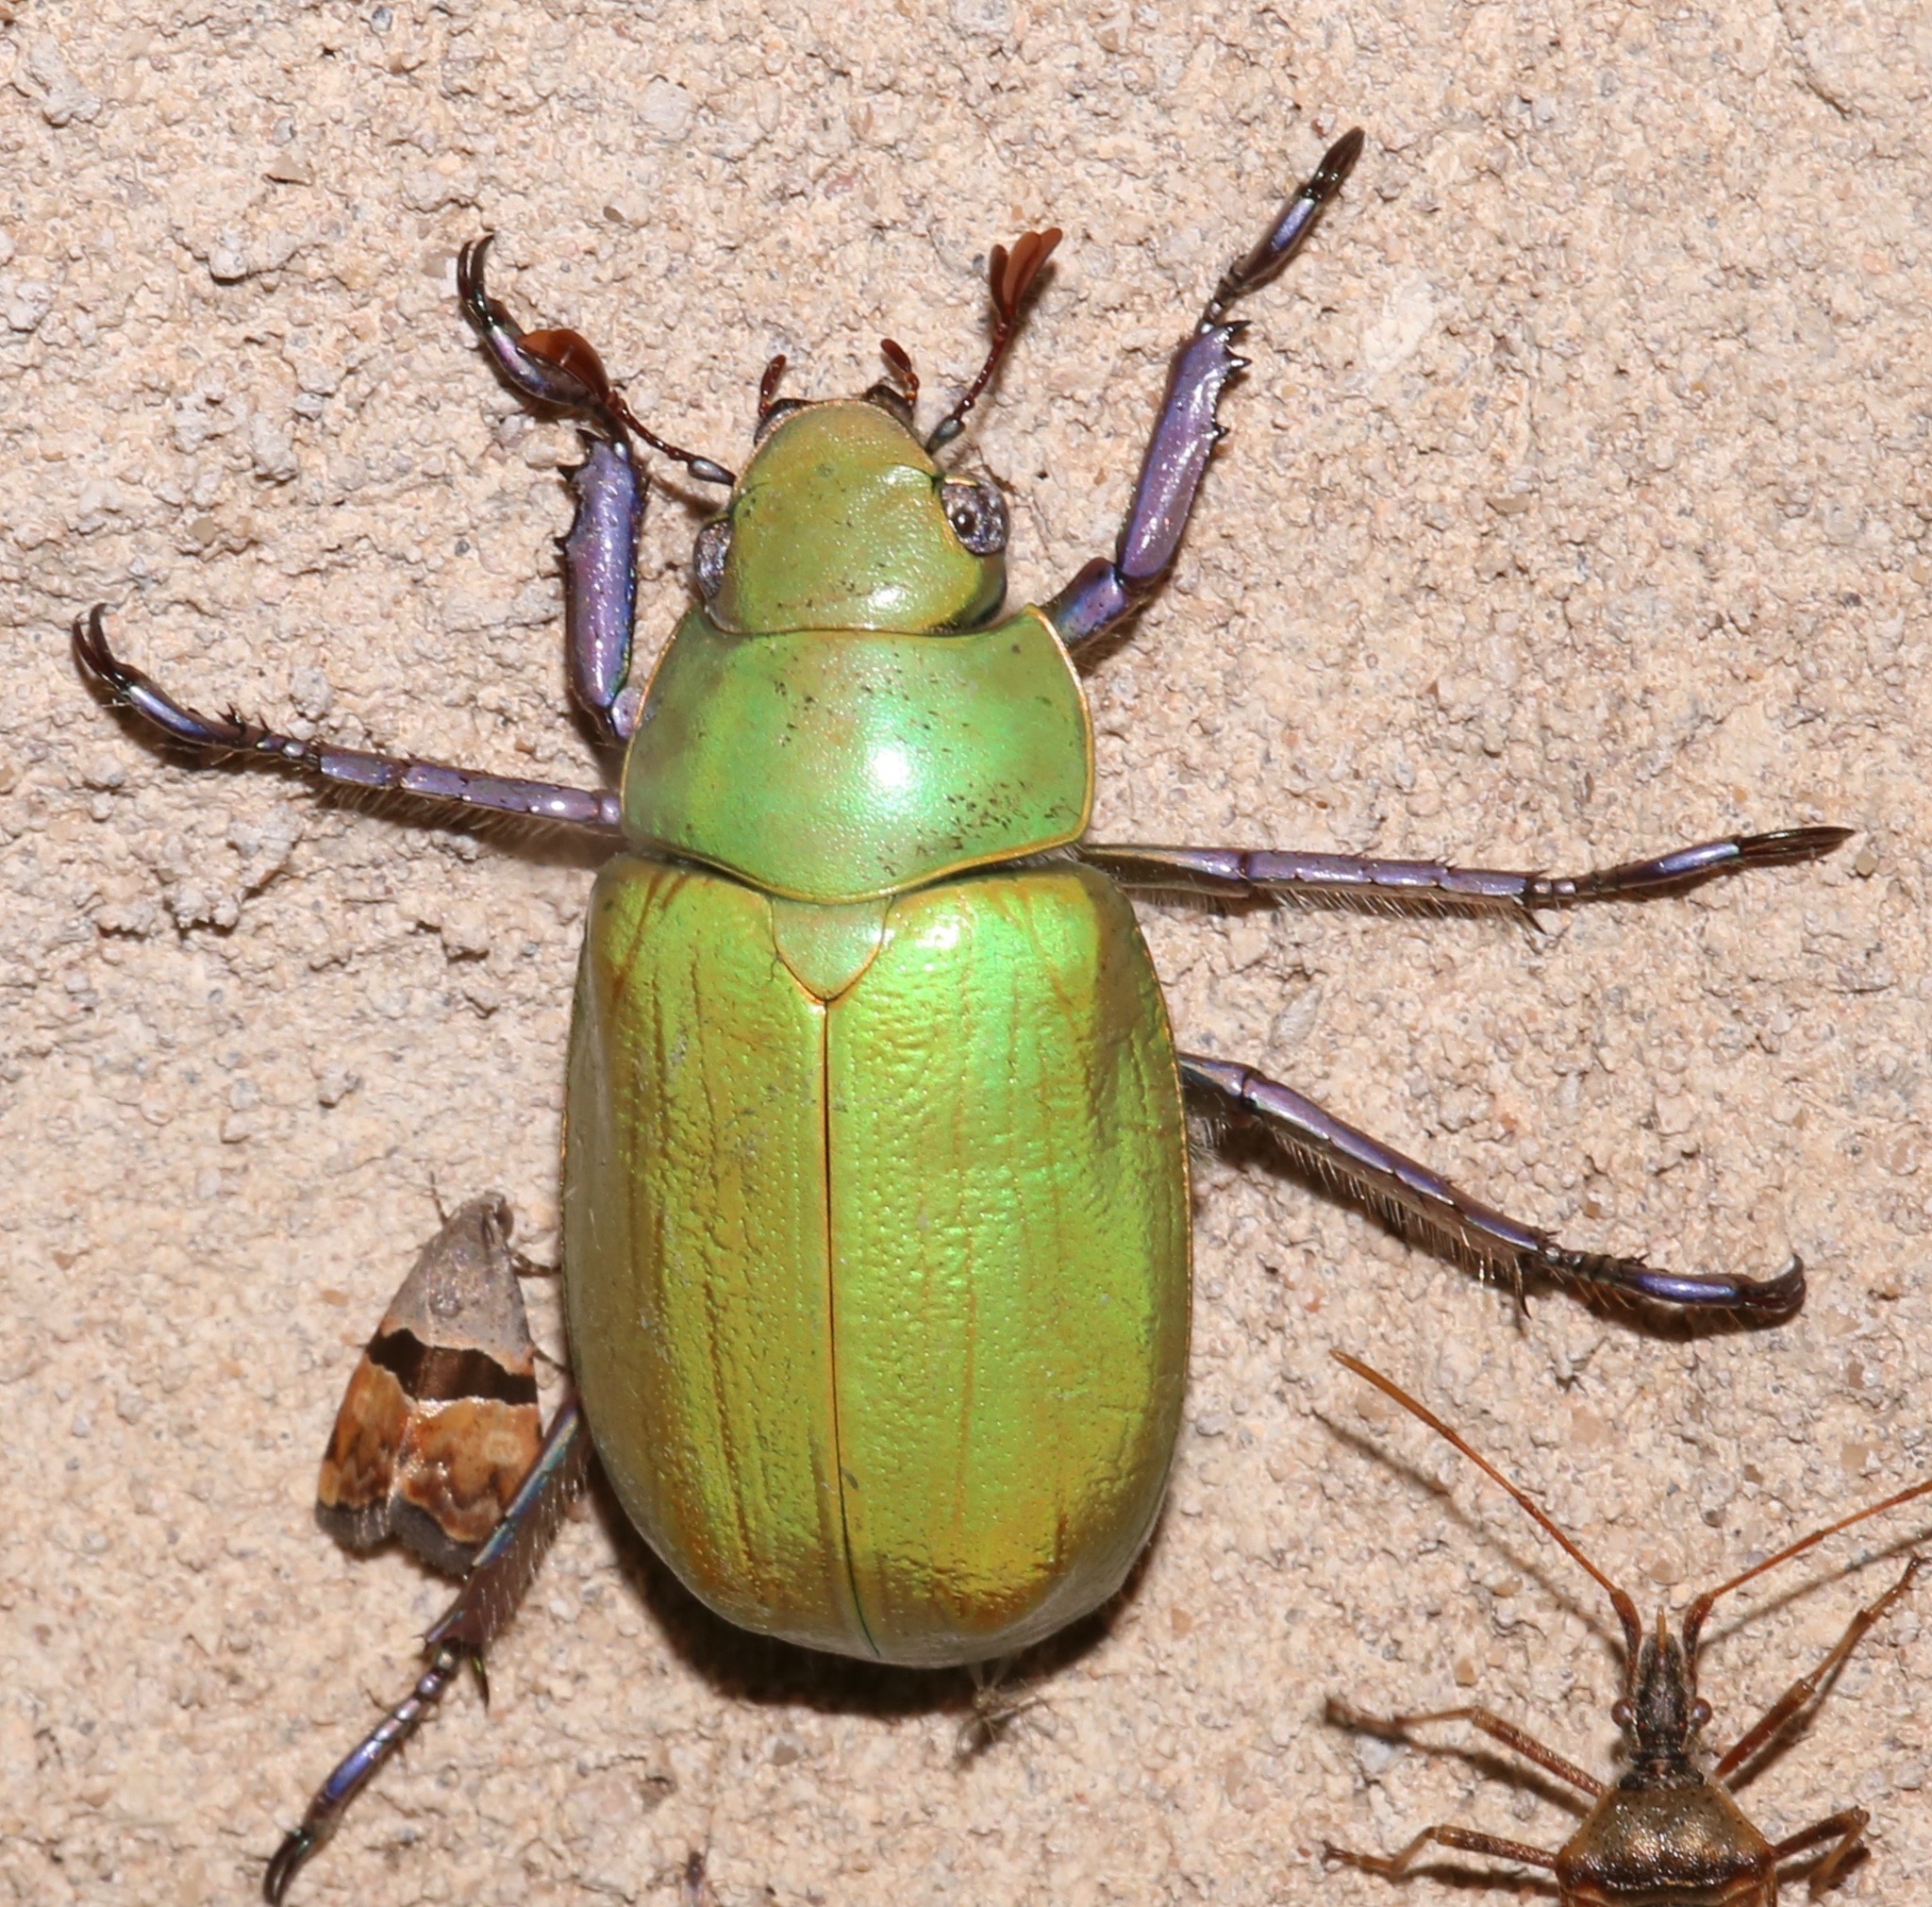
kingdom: Animalia
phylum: Arthropoda
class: Insecta
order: Coleoptera
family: Scarabaeidae
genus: Chrysina
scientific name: Chrysina beyeri
